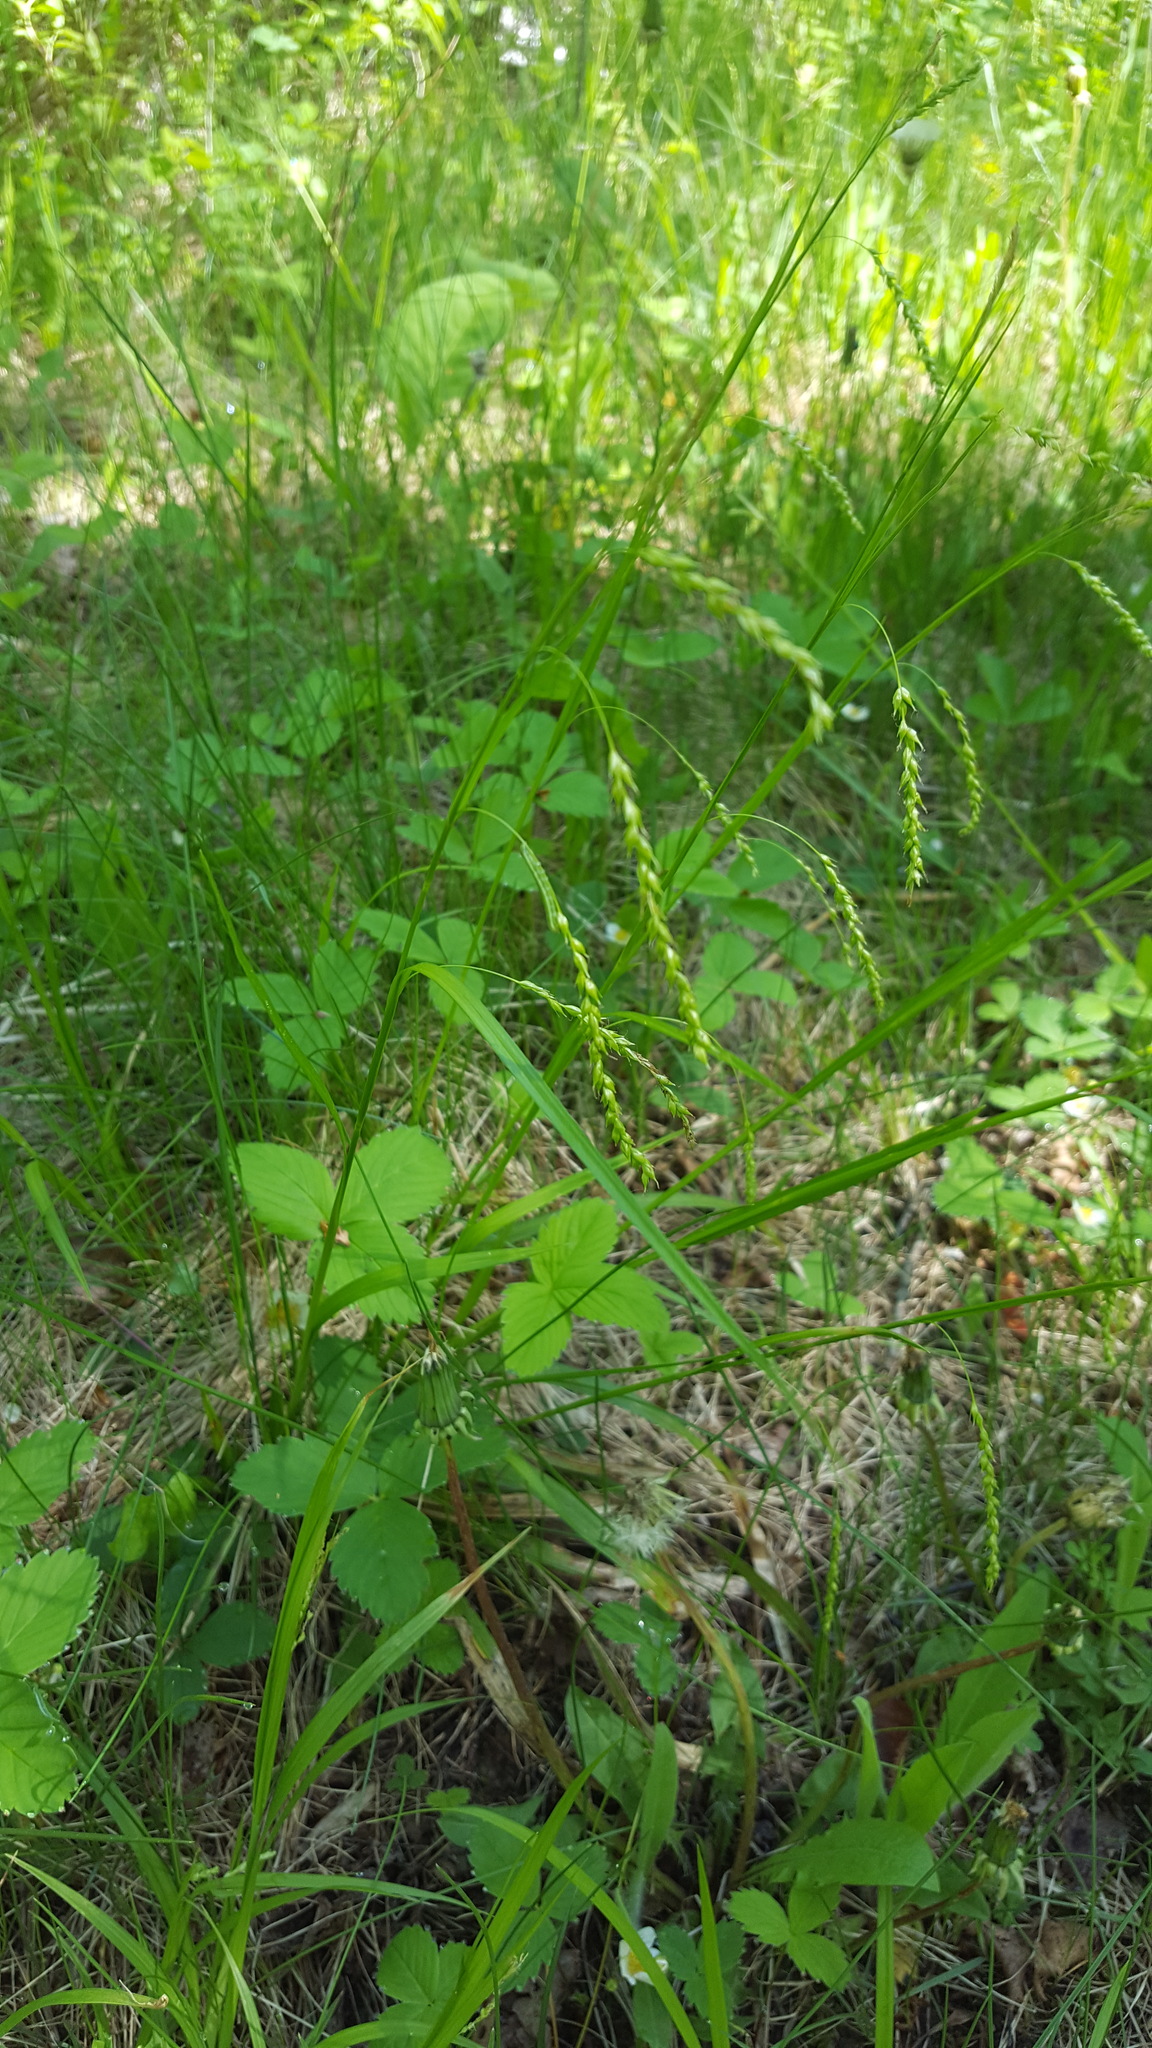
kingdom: Plantae
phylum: Tracheophyta
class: Liliopsida
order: Poales
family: Cyperaceae
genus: Carex
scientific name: Carex arctata
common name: Black sedge
